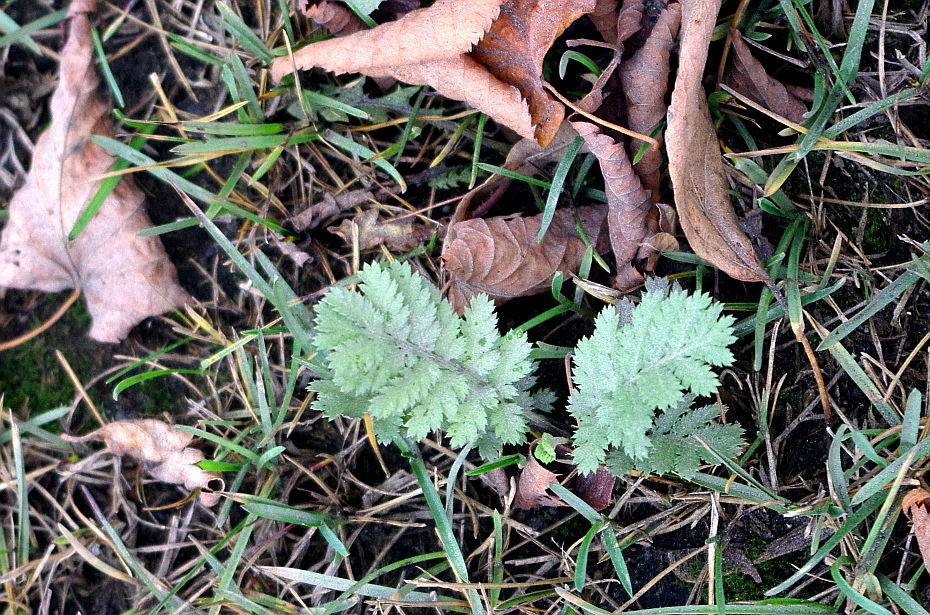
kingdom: Plantae
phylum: Tracheophyta
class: Magnoliopsida
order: Asterales
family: Asteraceae
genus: Tanacetum
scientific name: Tanacetum vulgare
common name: Common tansy
